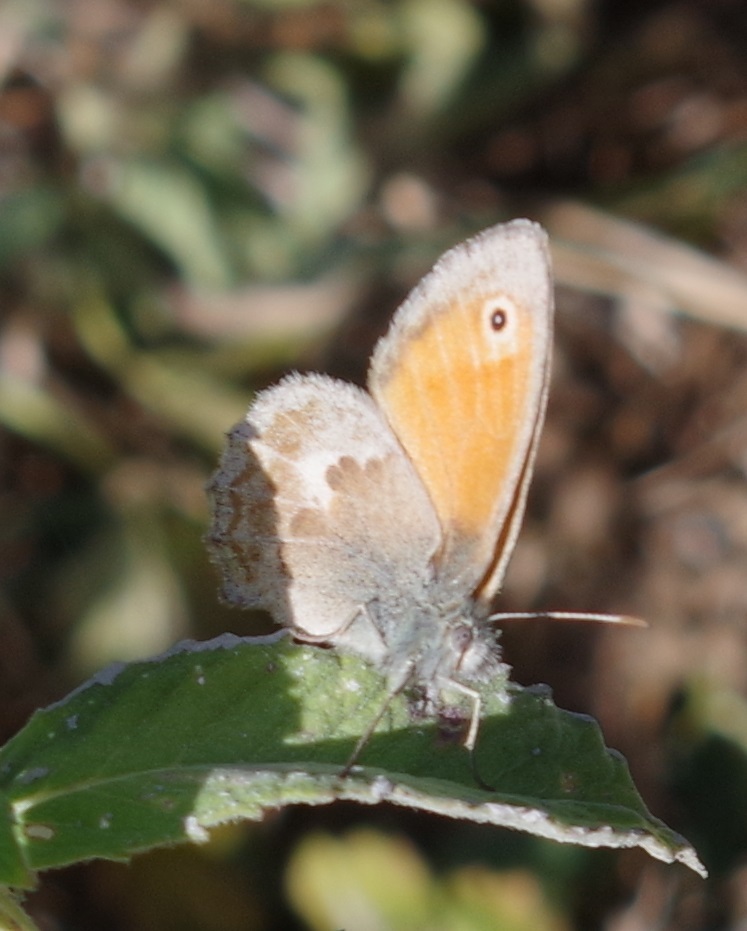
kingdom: Animalia
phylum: Arthropoda
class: Insecta
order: Lepidoptera
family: Nymphalidae
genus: Coenonympha
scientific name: Coenonympha pamphilus
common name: Small heath
